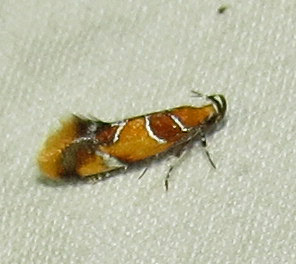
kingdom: Animalia
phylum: Arthropoda
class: Insecta
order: Lepidoptera
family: Oecophoridae
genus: Callima
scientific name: Callima argenticinctella
